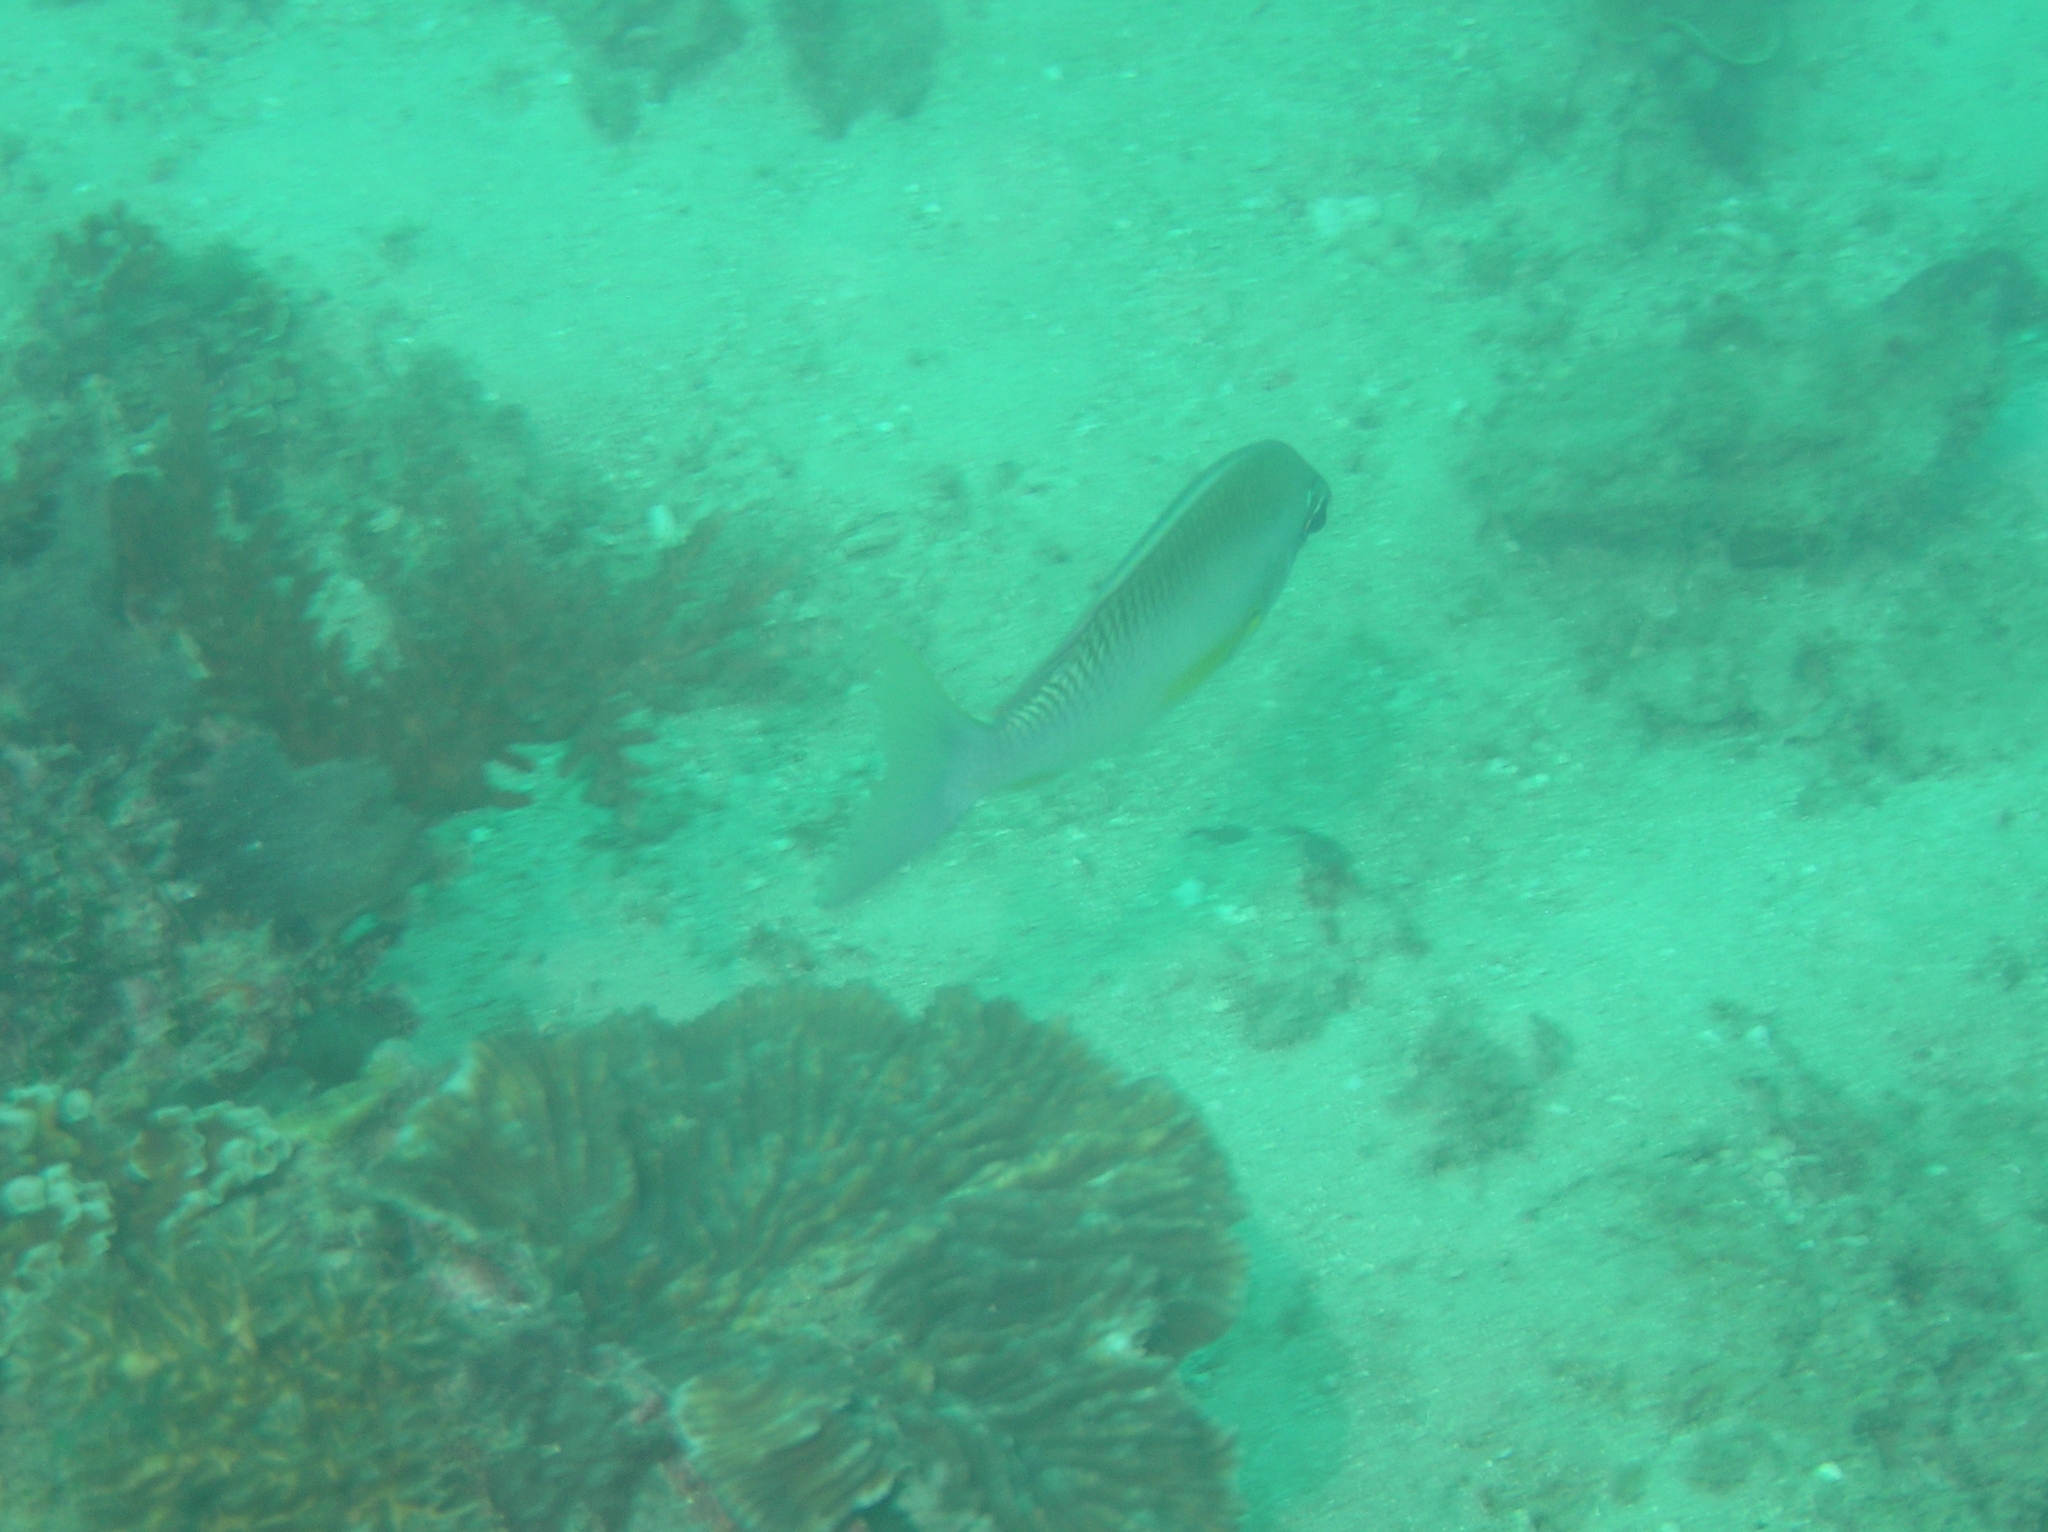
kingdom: Animalia
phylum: Chordata
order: Perciformes
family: Nemipteridae
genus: Scolopsis
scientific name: Scolopsis margaritifera
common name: Pearly monocle bream
